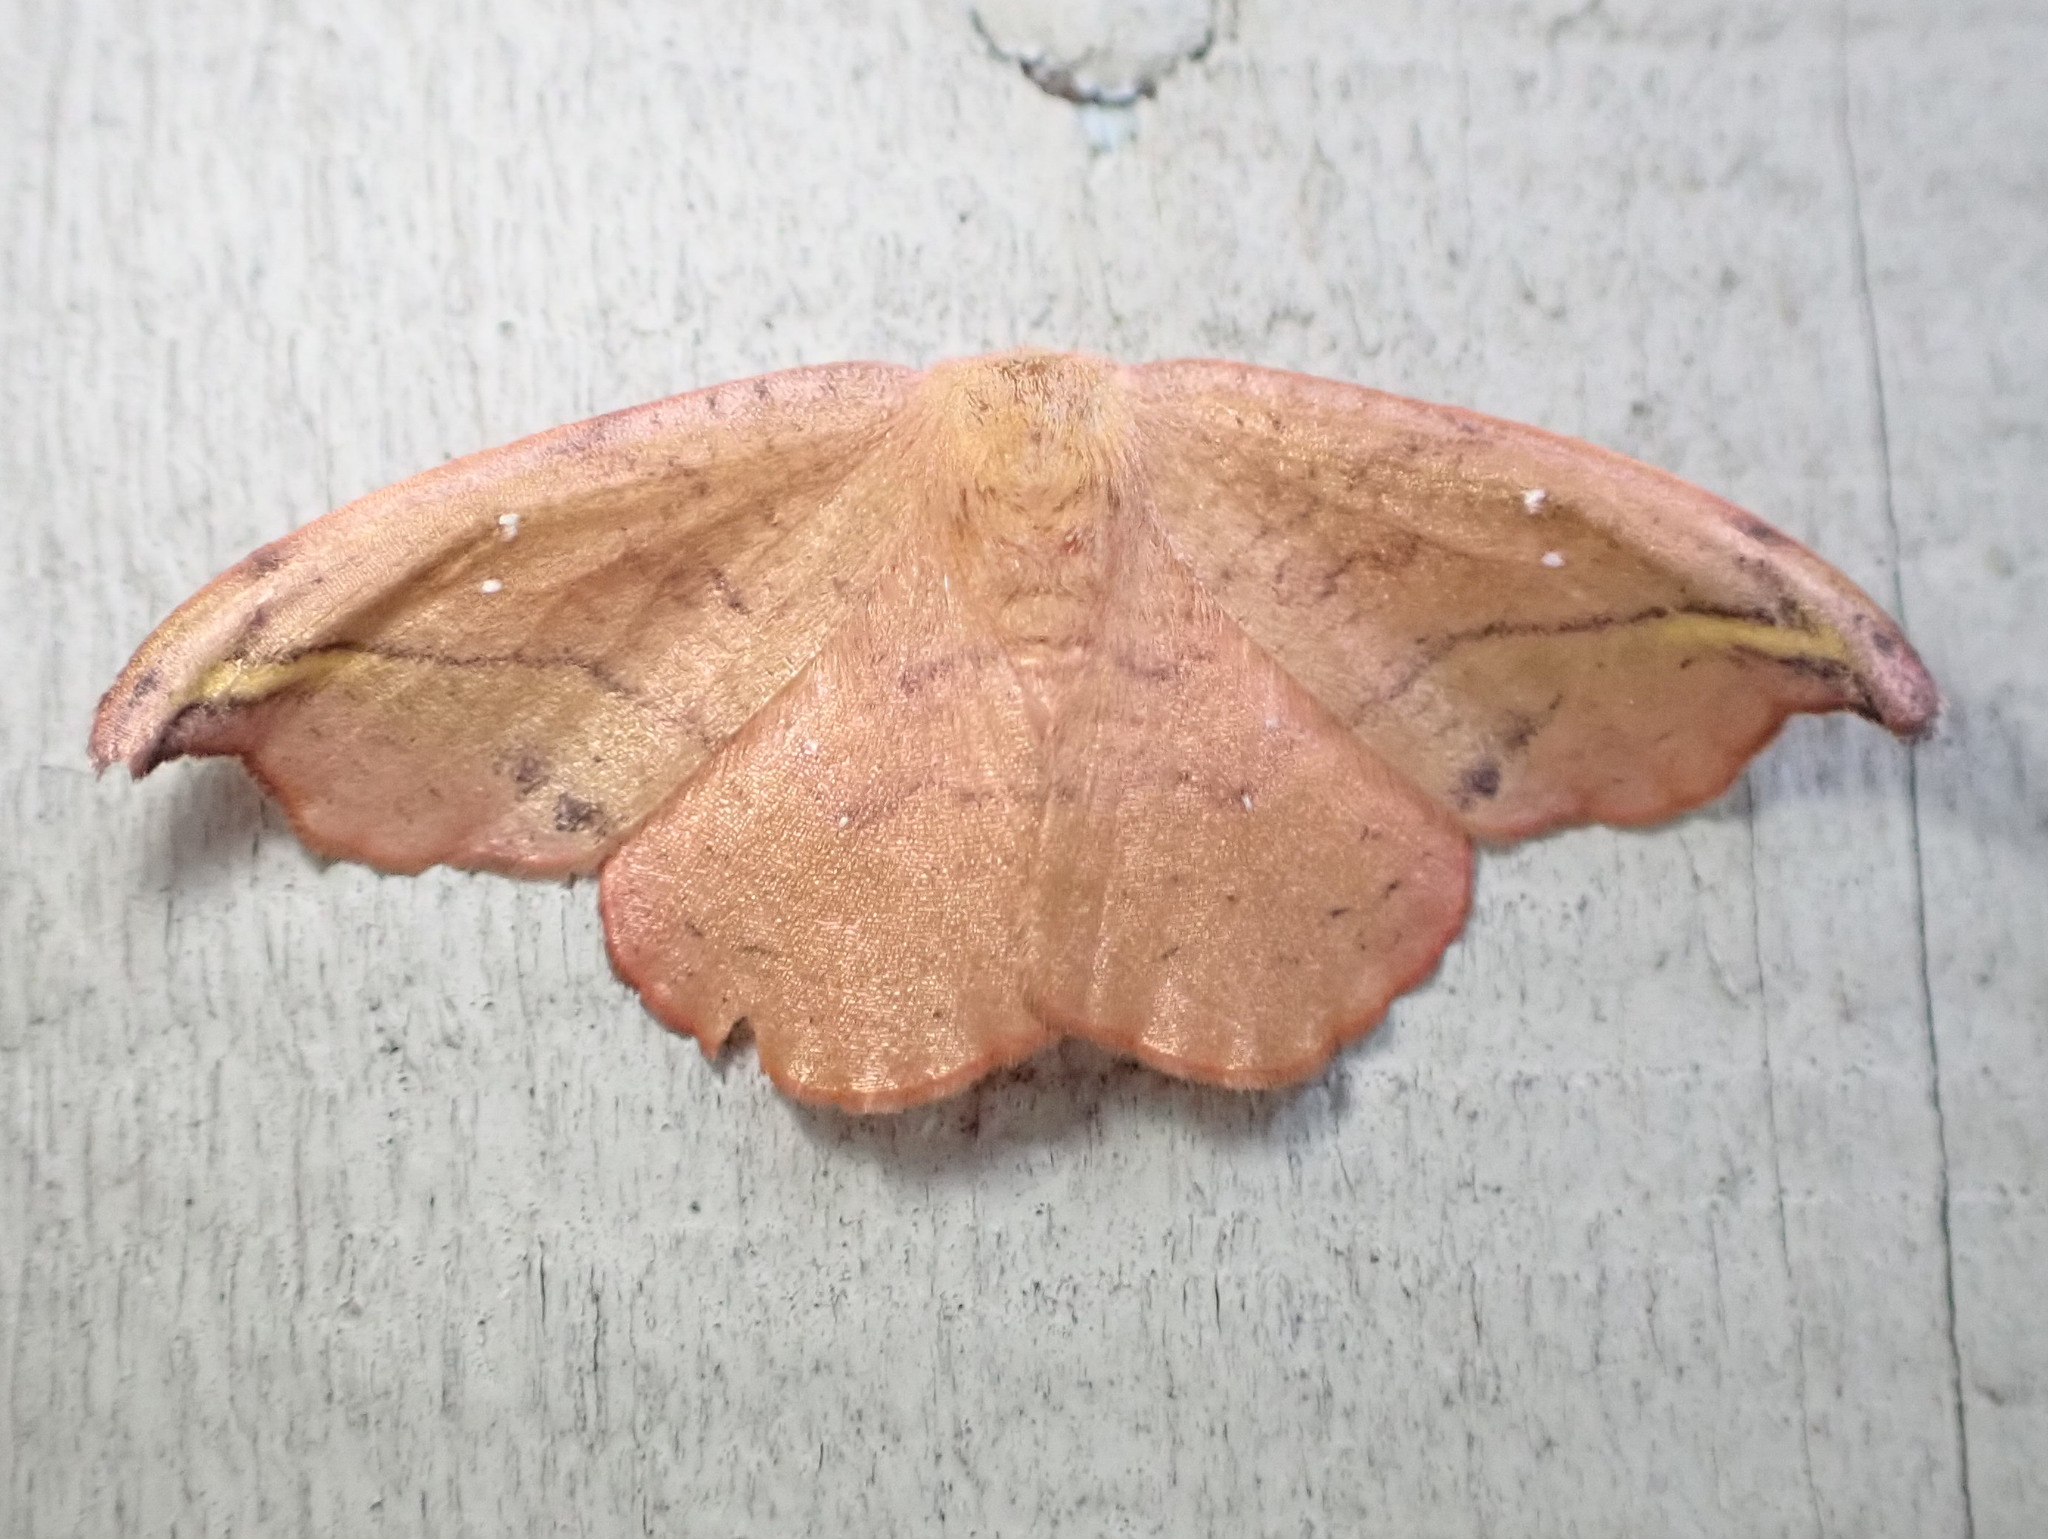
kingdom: Animalia
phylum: Arthropoda
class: Insecta
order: Lepidoptera
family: Drepanidae
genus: Oreta
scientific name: Oreta rosea
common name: Rose hooktip
